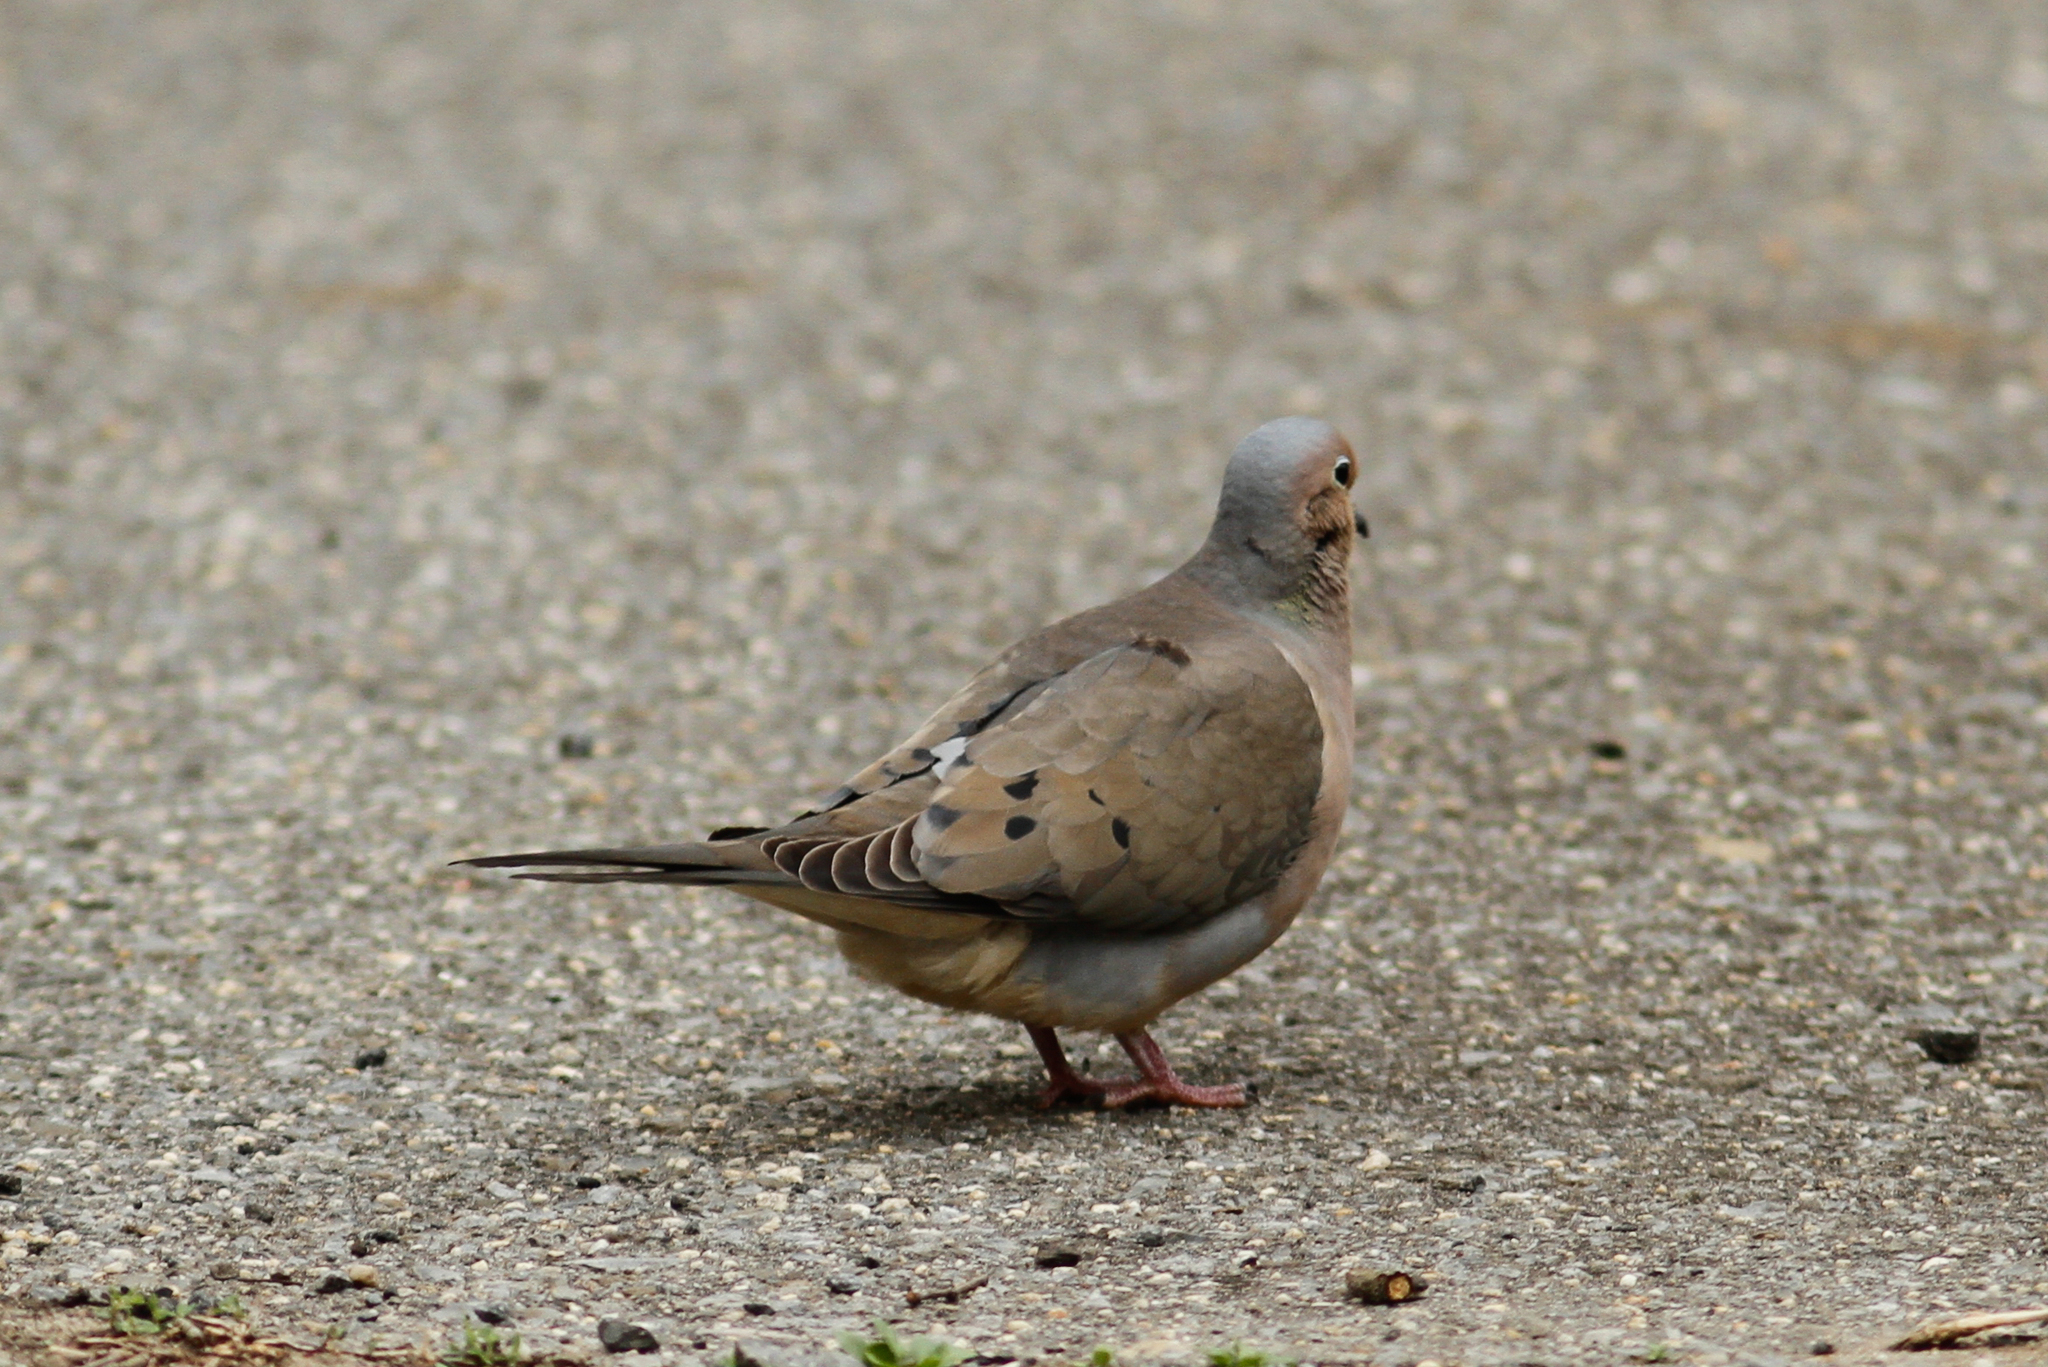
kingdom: Animalia
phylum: Chordata
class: Aves
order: Columbiformes
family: Columbidae
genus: Zenaida
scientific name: Zenaida macroura
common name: Mourning dove
